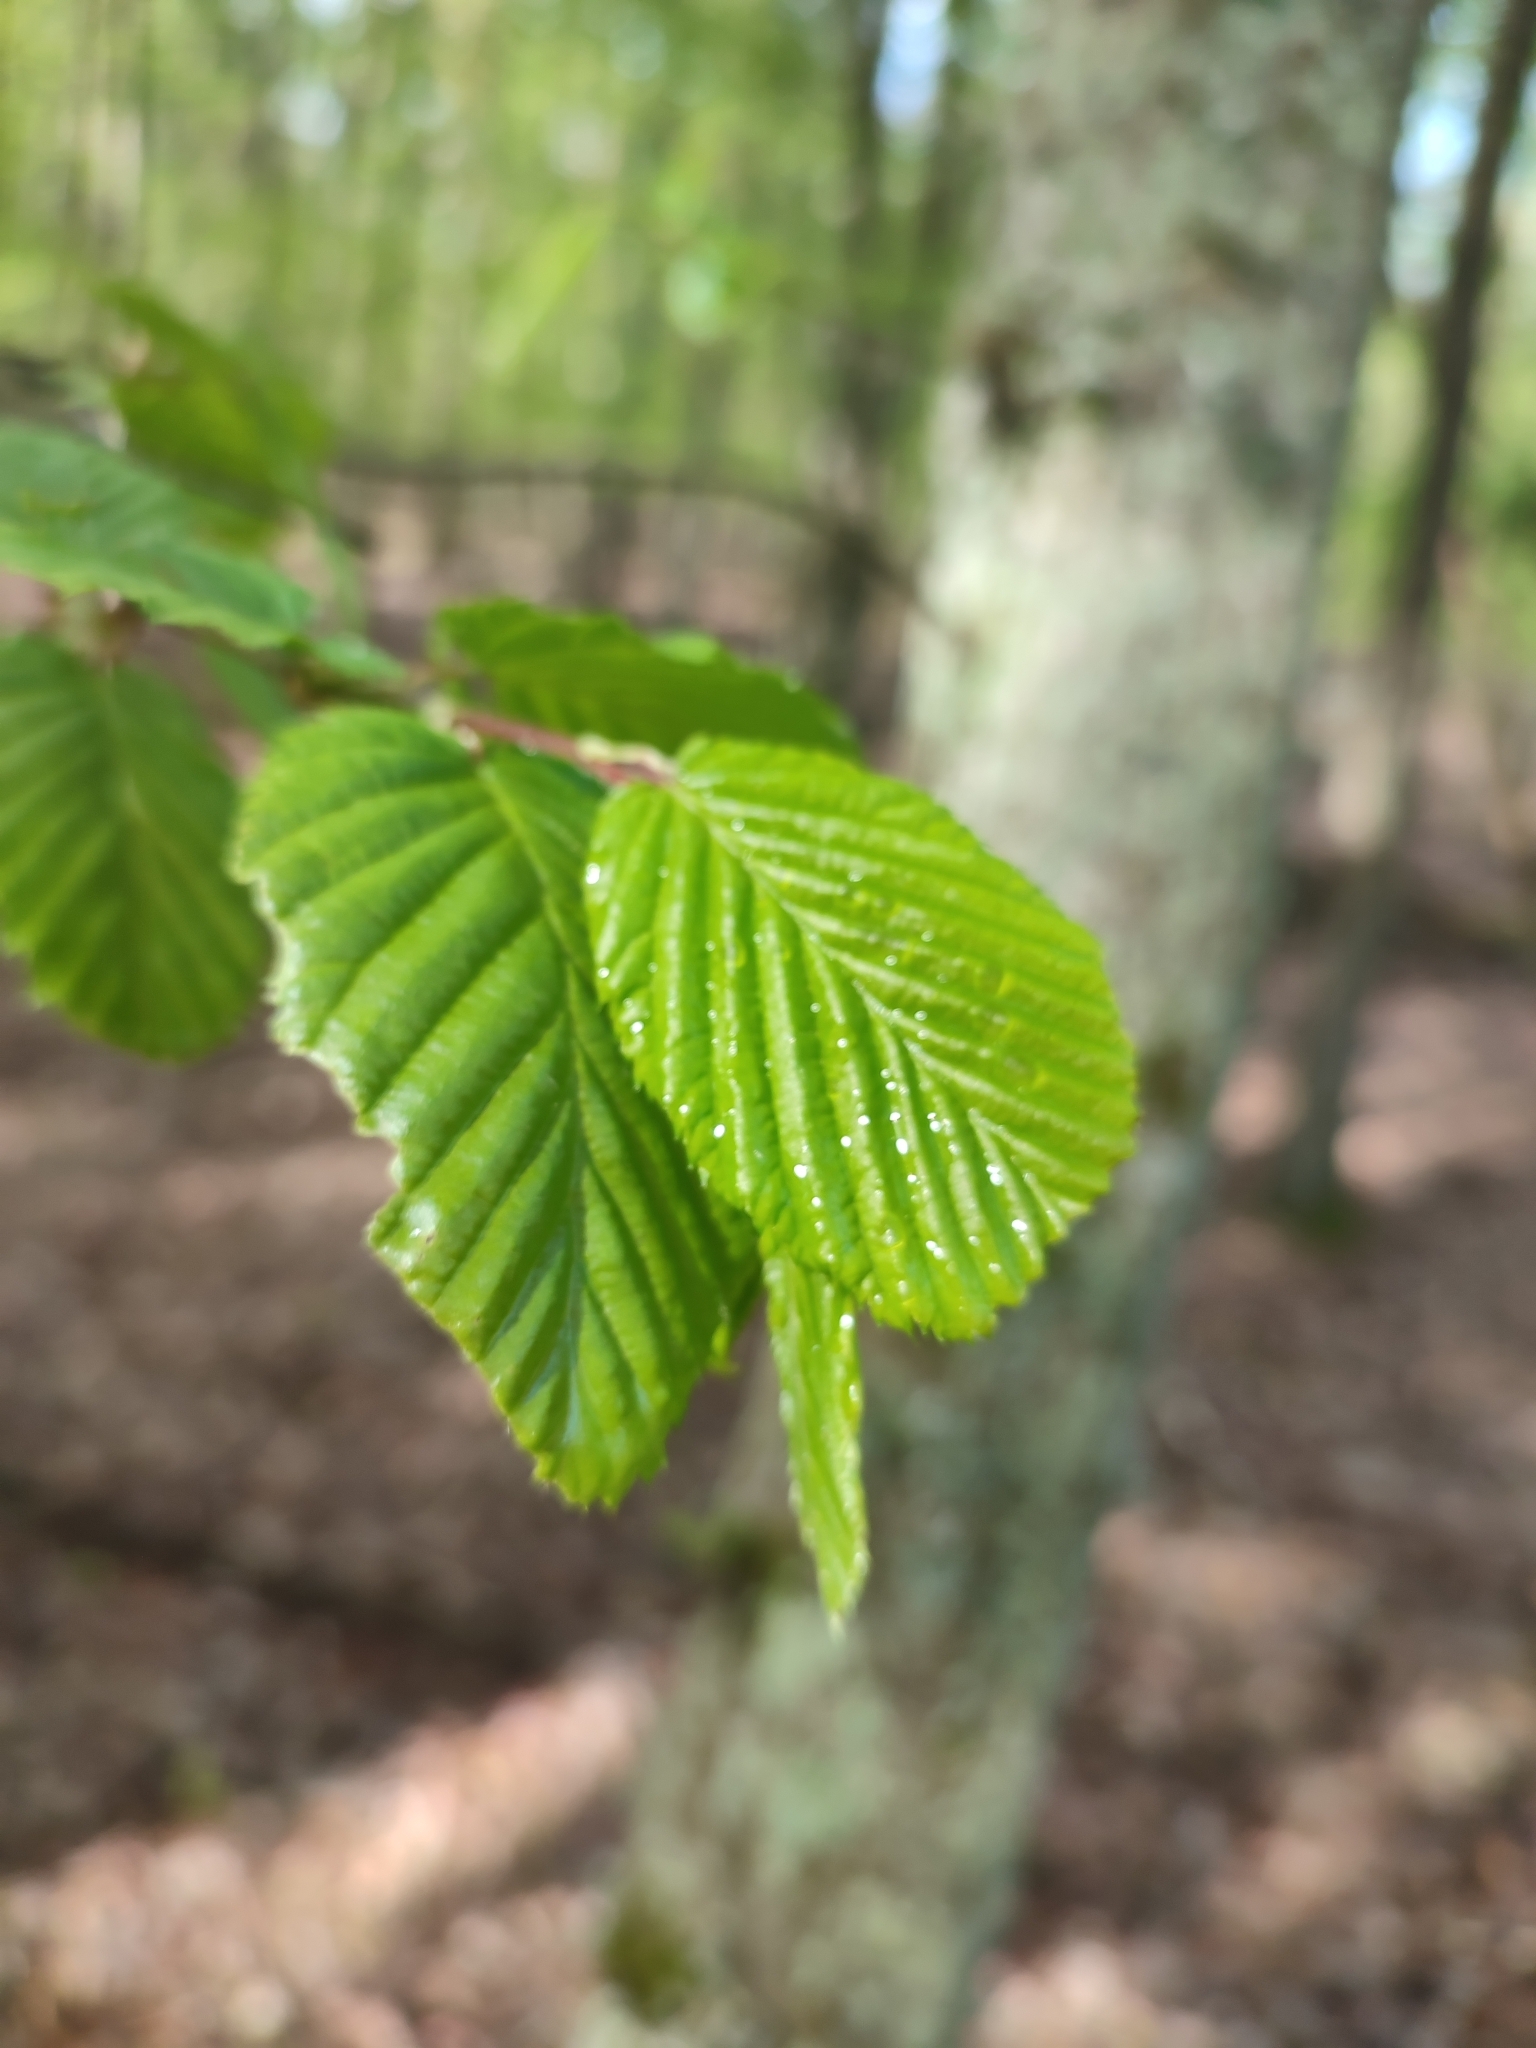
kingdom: Plantae
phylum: Tracheophyta
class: Magnoliopsida
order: Fagales
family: Betulaceae
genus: Carpinus
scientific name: Carpinus betulus
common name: Hornbeam
